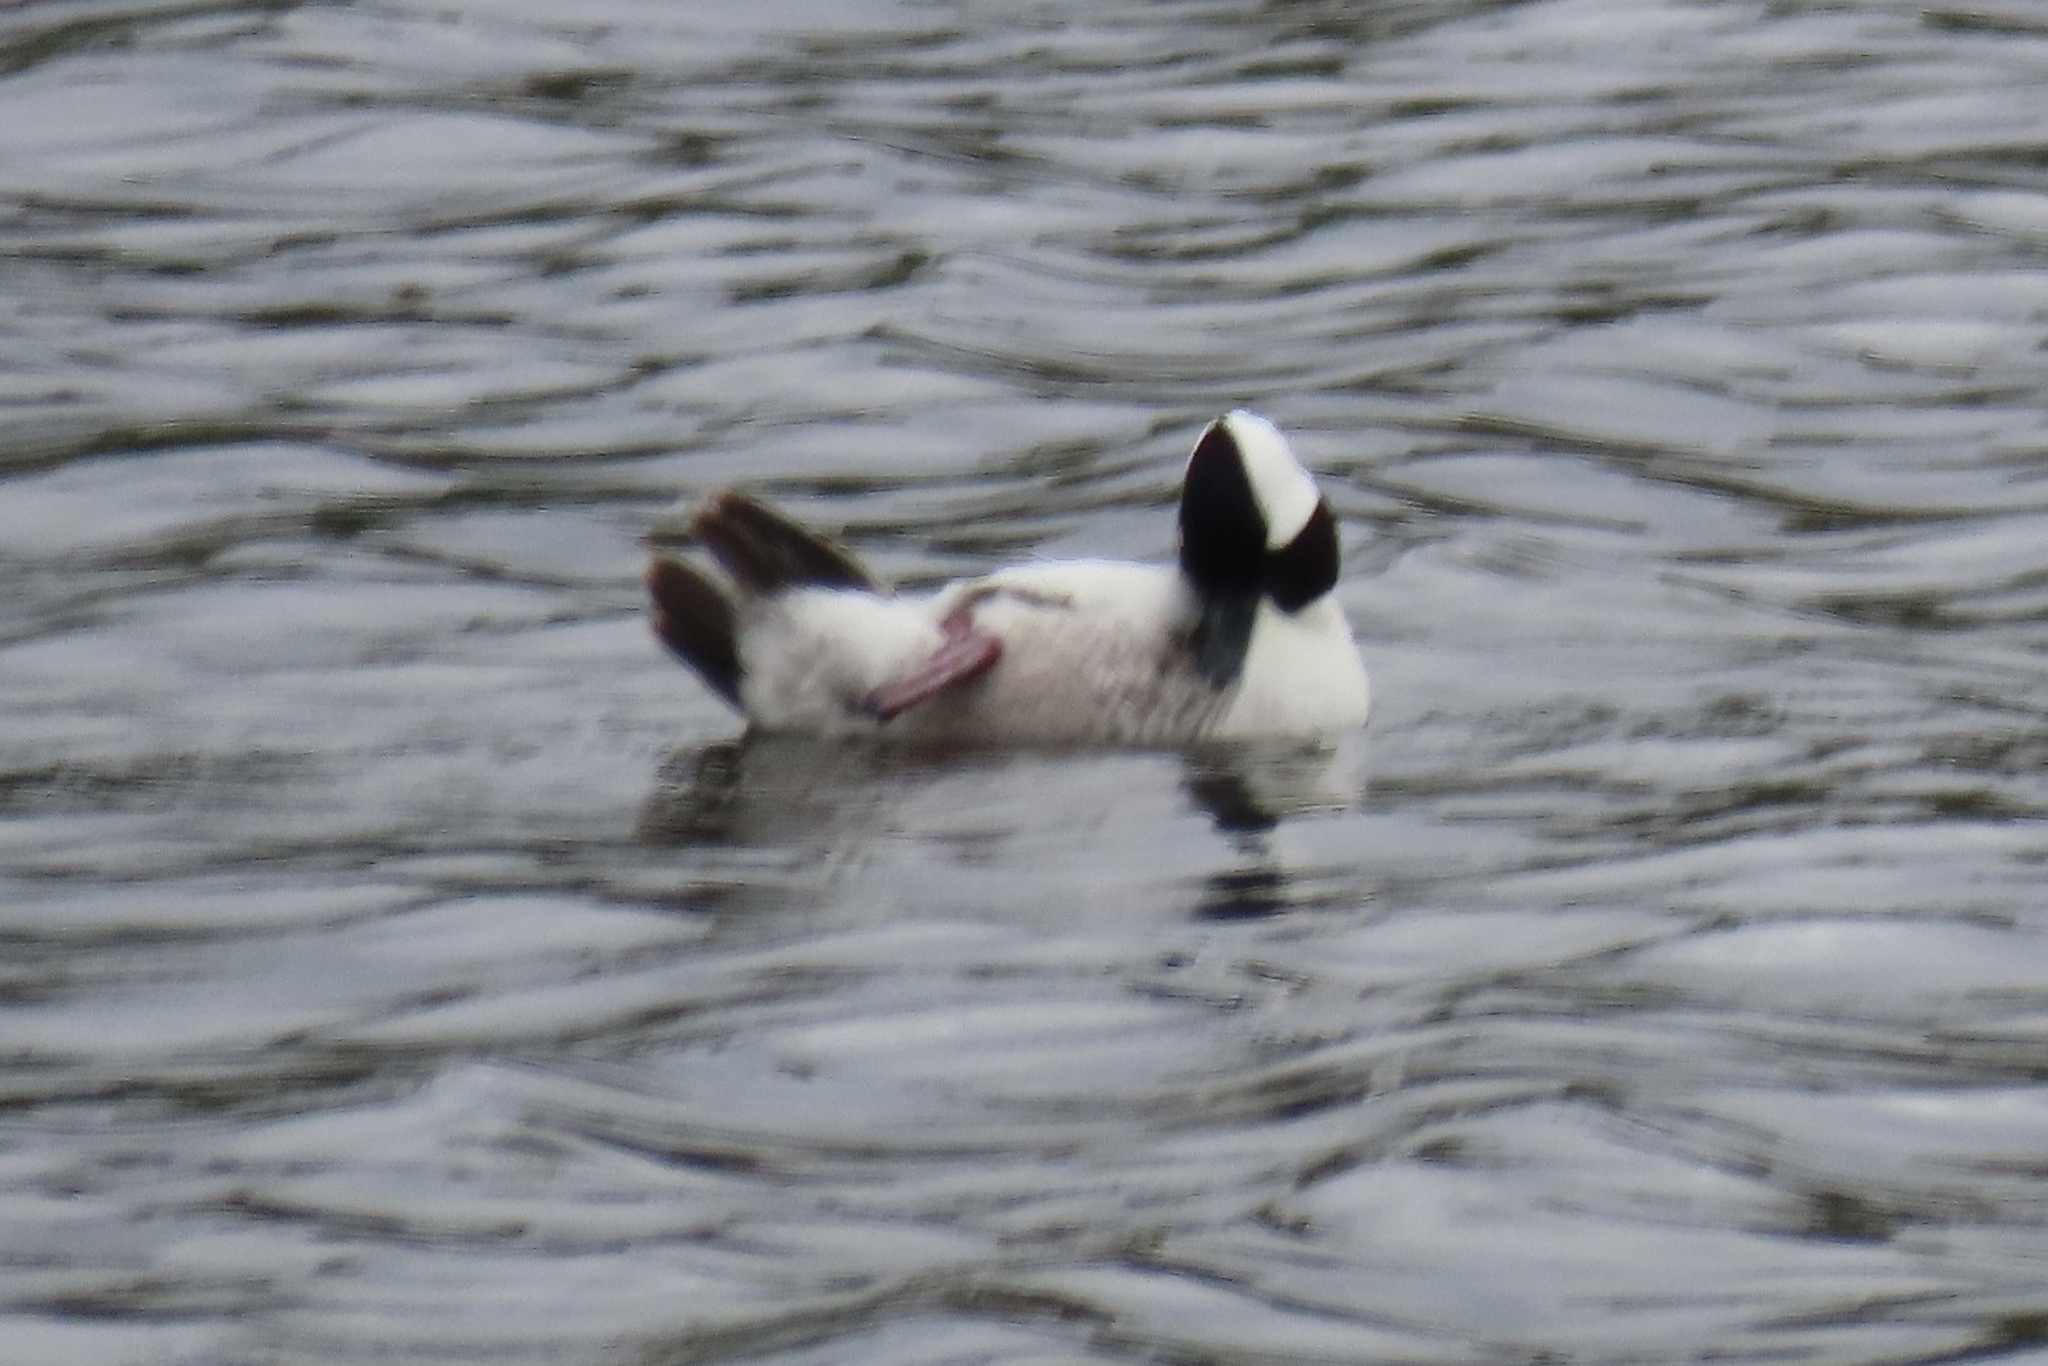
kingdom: Animalia
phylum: Chordata
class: Aves
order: Anseriformes
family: Anatidae
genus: Bucephala
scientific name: Bucephala albeola
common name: Bufflehead
